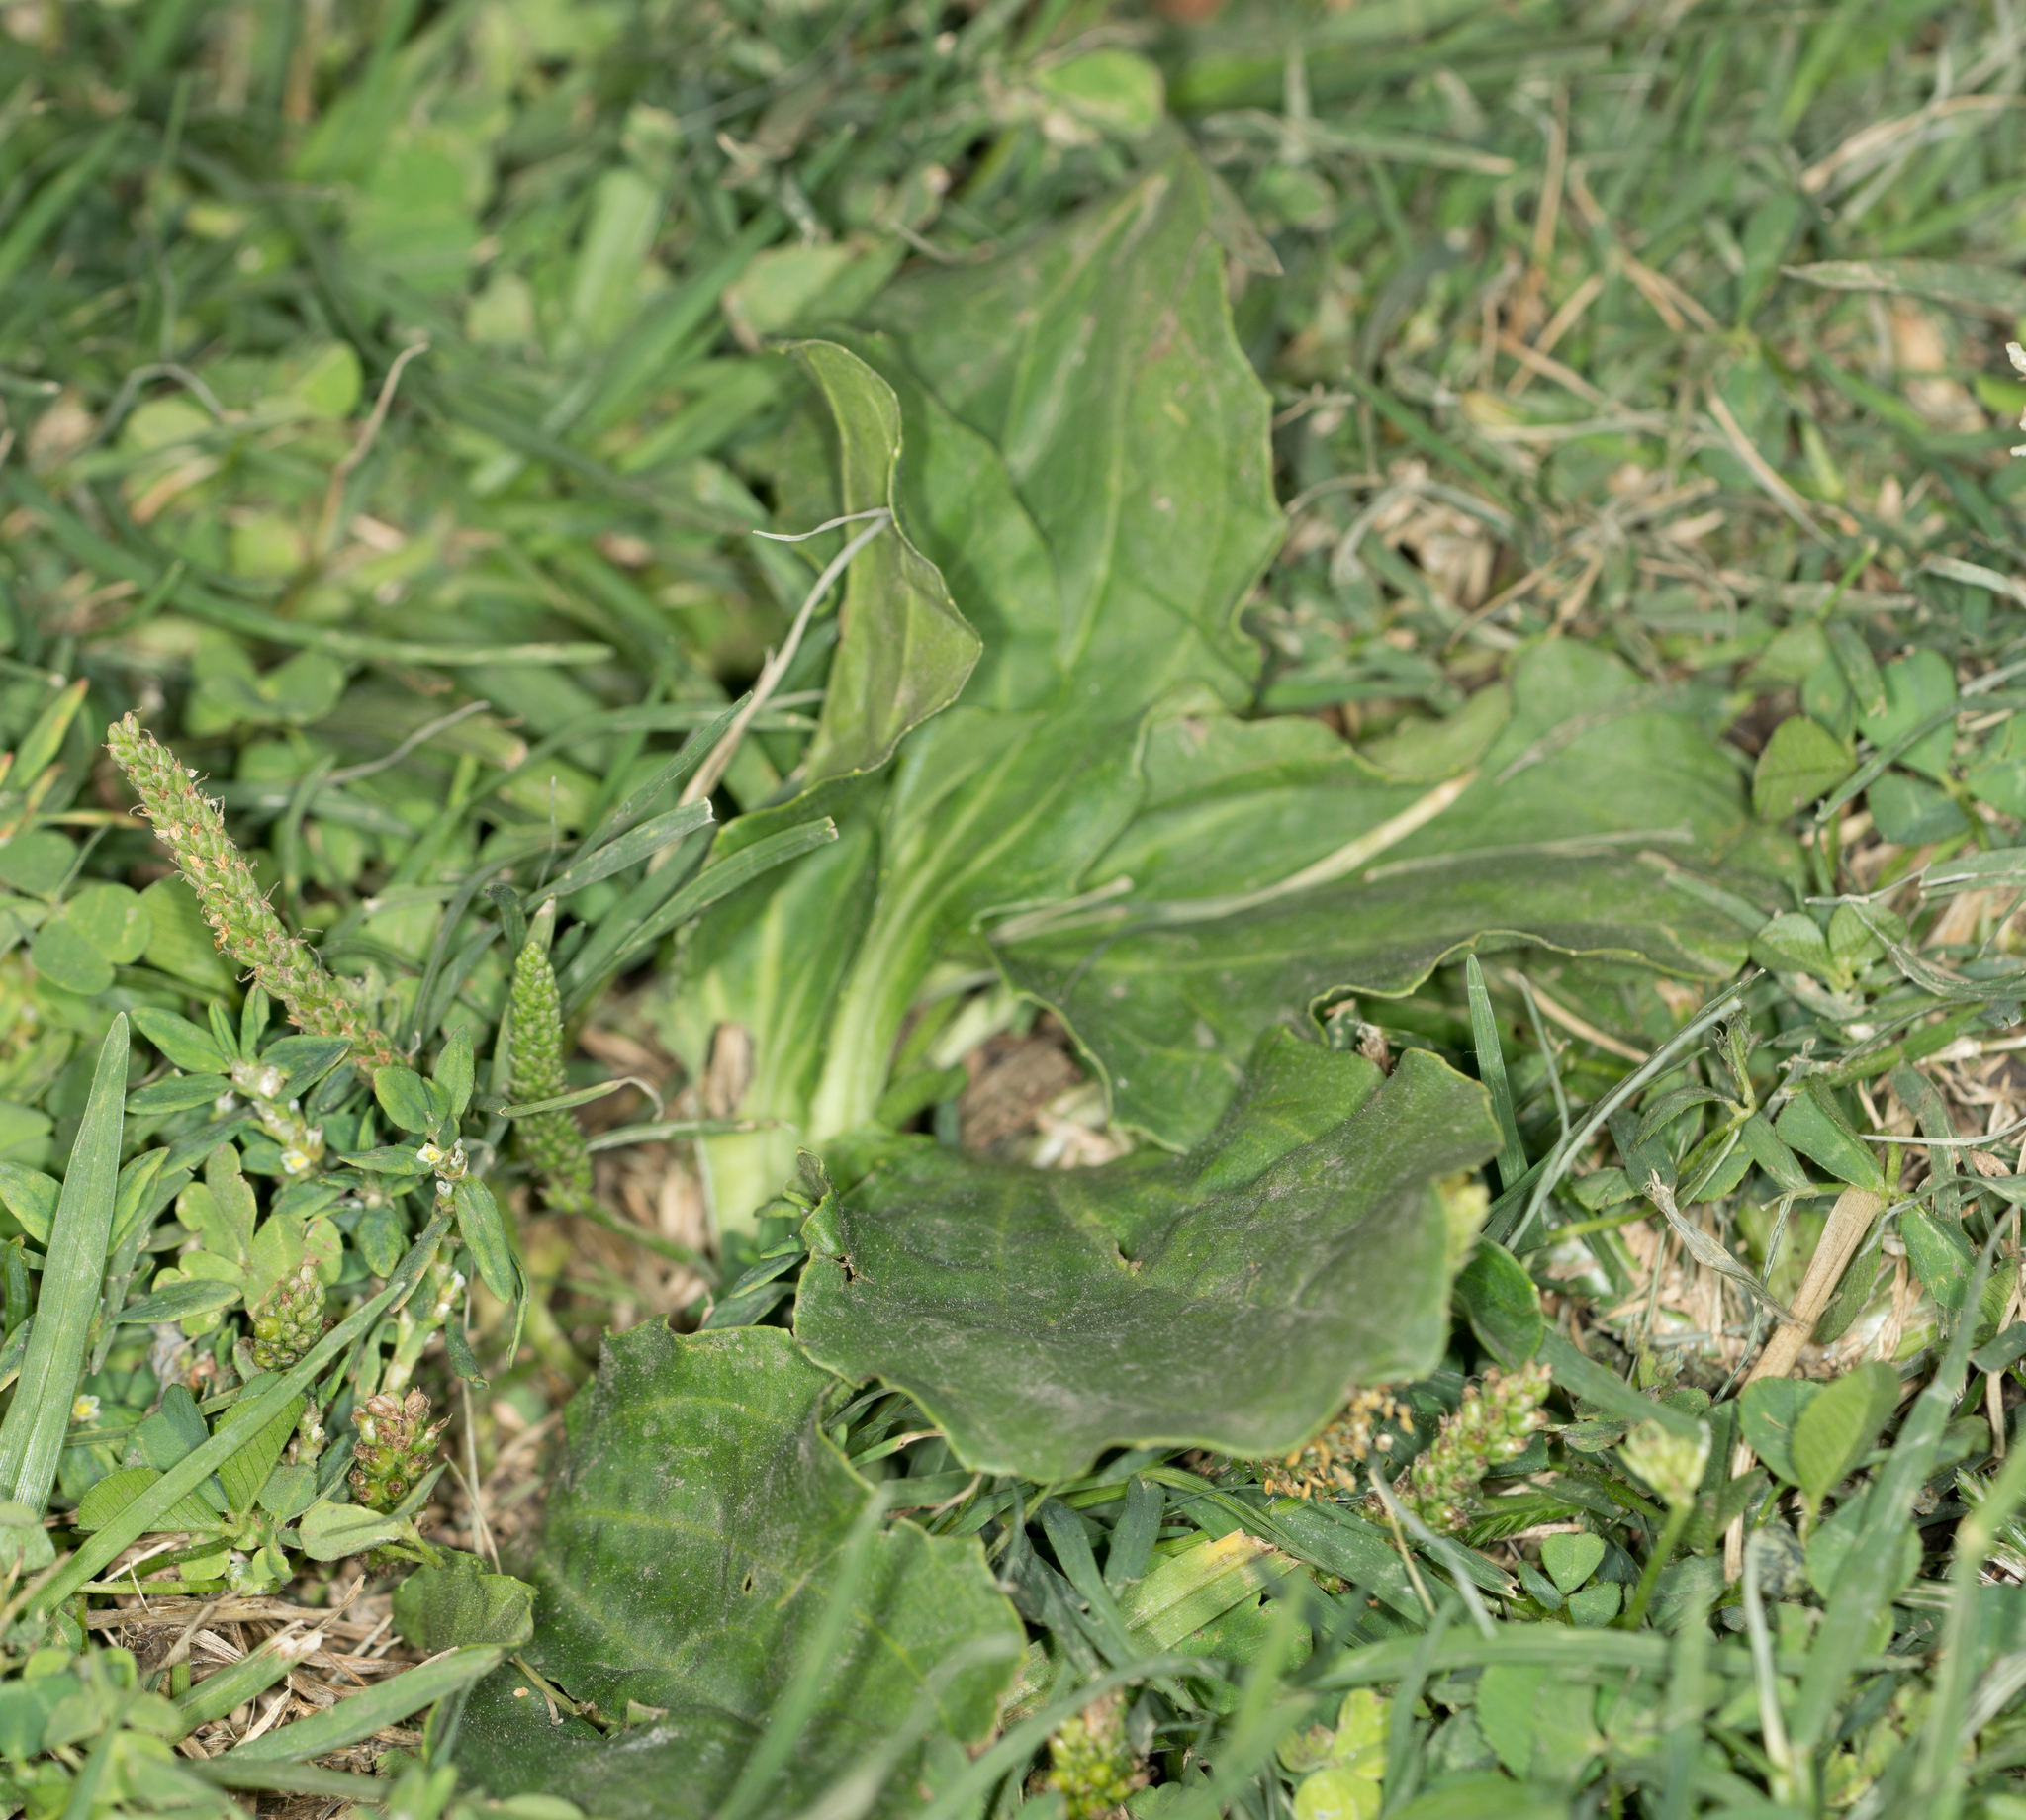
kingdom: Plantae
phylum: Tracheophyta
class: Magnoliopsida
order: Lamiales
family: Plantaginaceae
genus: Plantago
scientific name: Plantago major
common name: Common plantain
